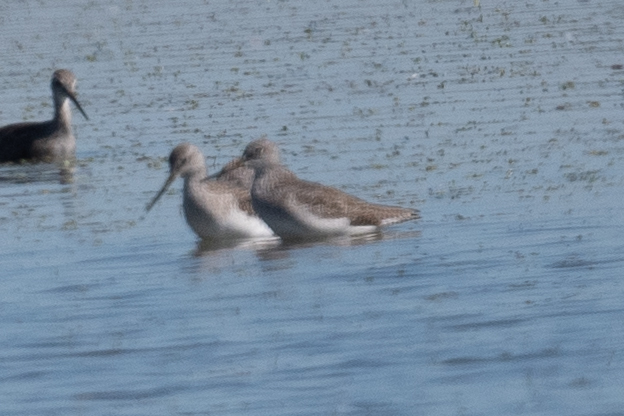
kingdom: Animalia
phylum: Chordata
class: Aves
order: Charadriiformes
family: Scolopacidae
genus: Tringa
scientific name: Tringa melanoleuca
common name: Greater yellowlegs
